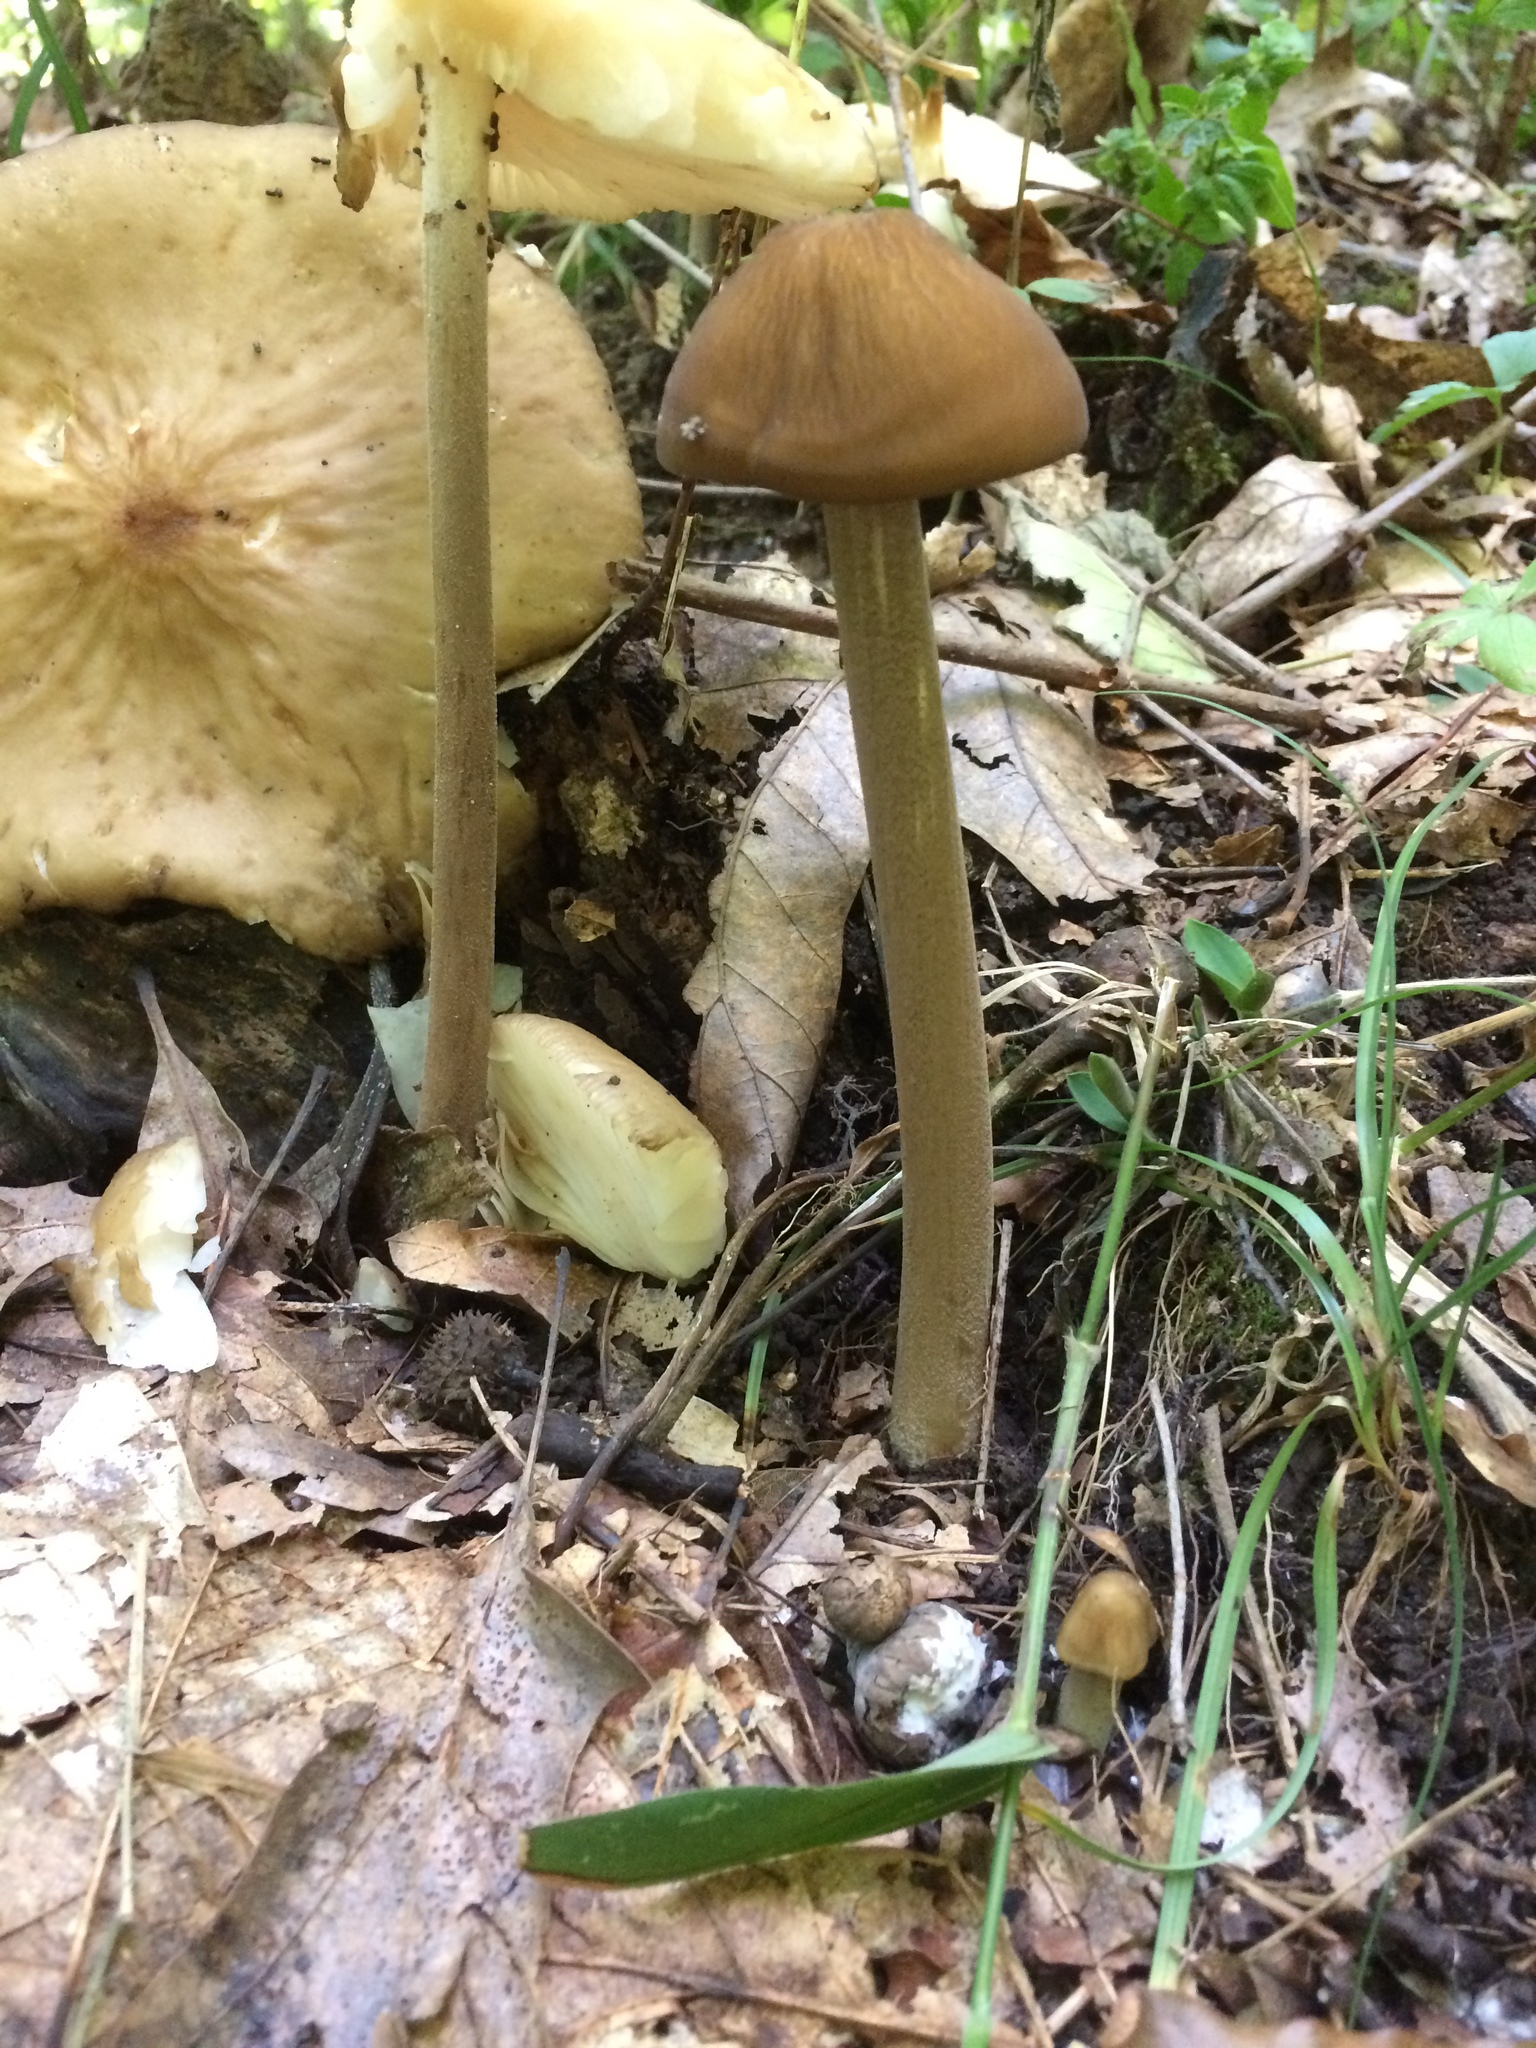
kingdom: Fungi
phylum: Basidiomycota
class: Agaricomycetes
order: Agaricales
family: Physalacriaceae
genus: Hymenopellis
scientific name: Hymenopellis furfuracea
